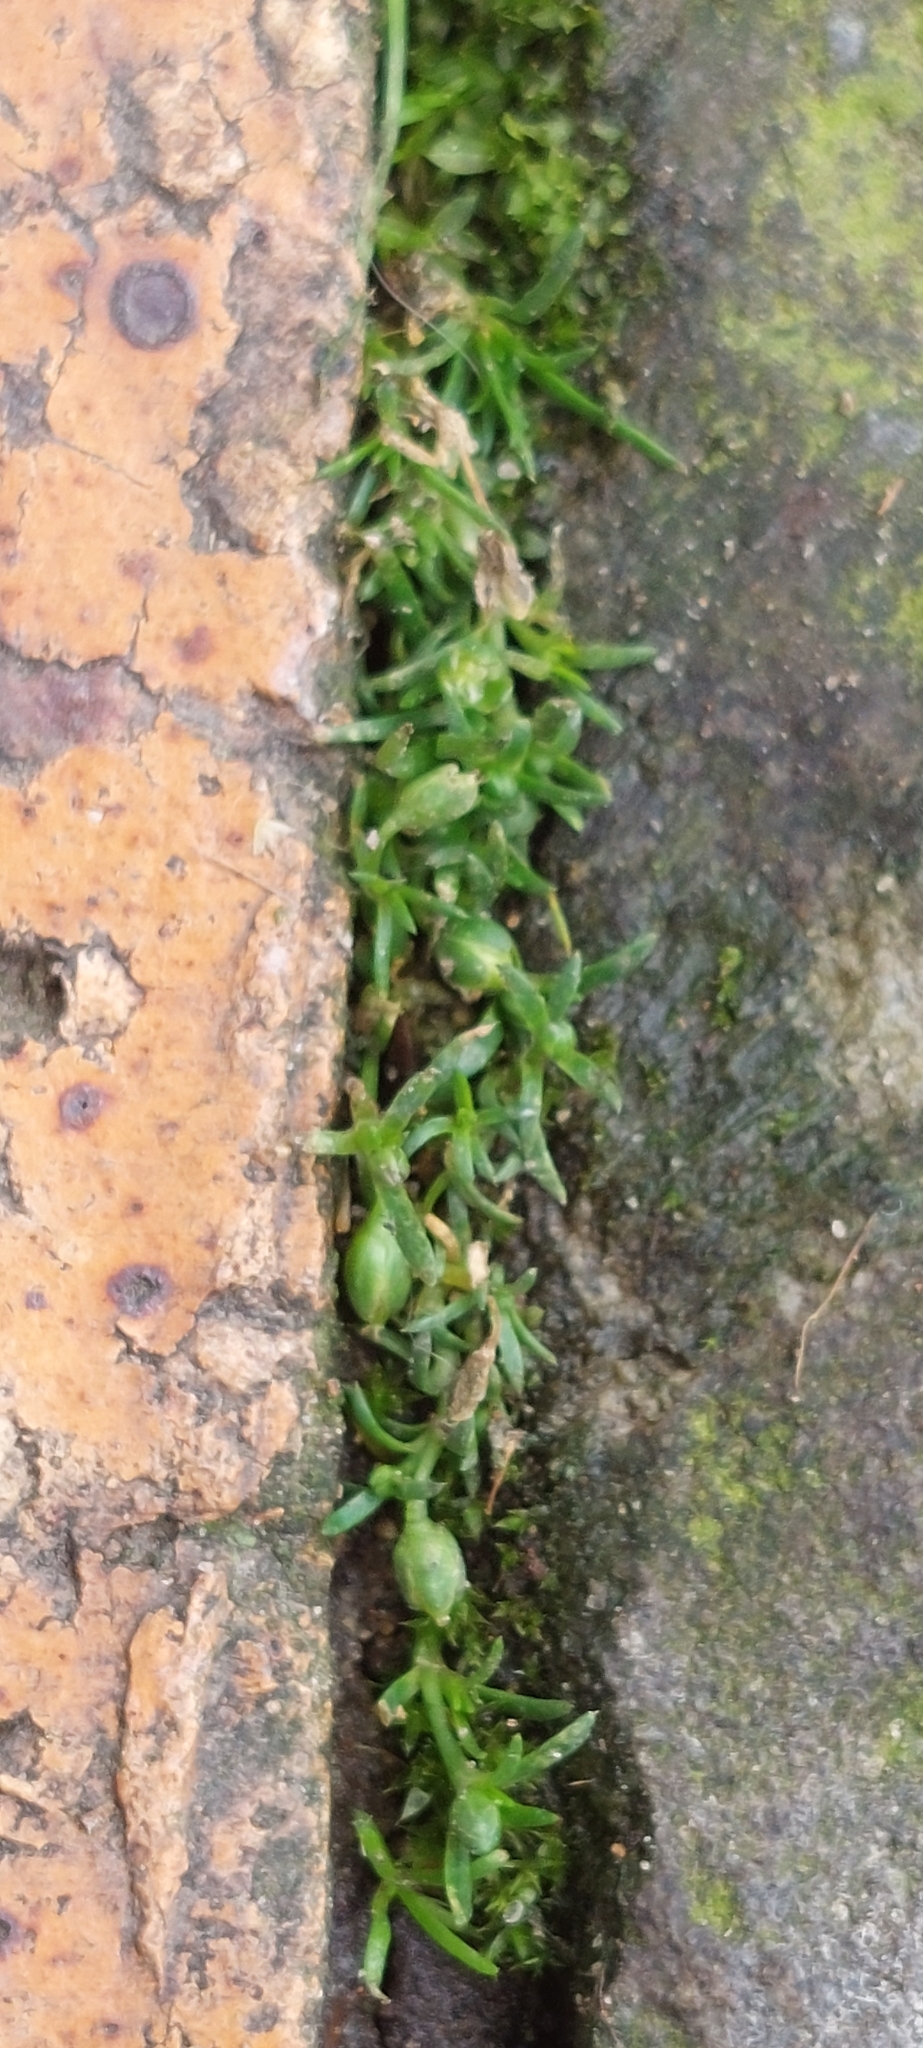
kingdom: Plantae
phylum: Tracheophyta
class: Magnoliopsida
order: Caryophyllales
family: Caryophyllaceae
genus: Sagina
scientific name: Sagina procumbens
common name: Procumbent pearlwort
